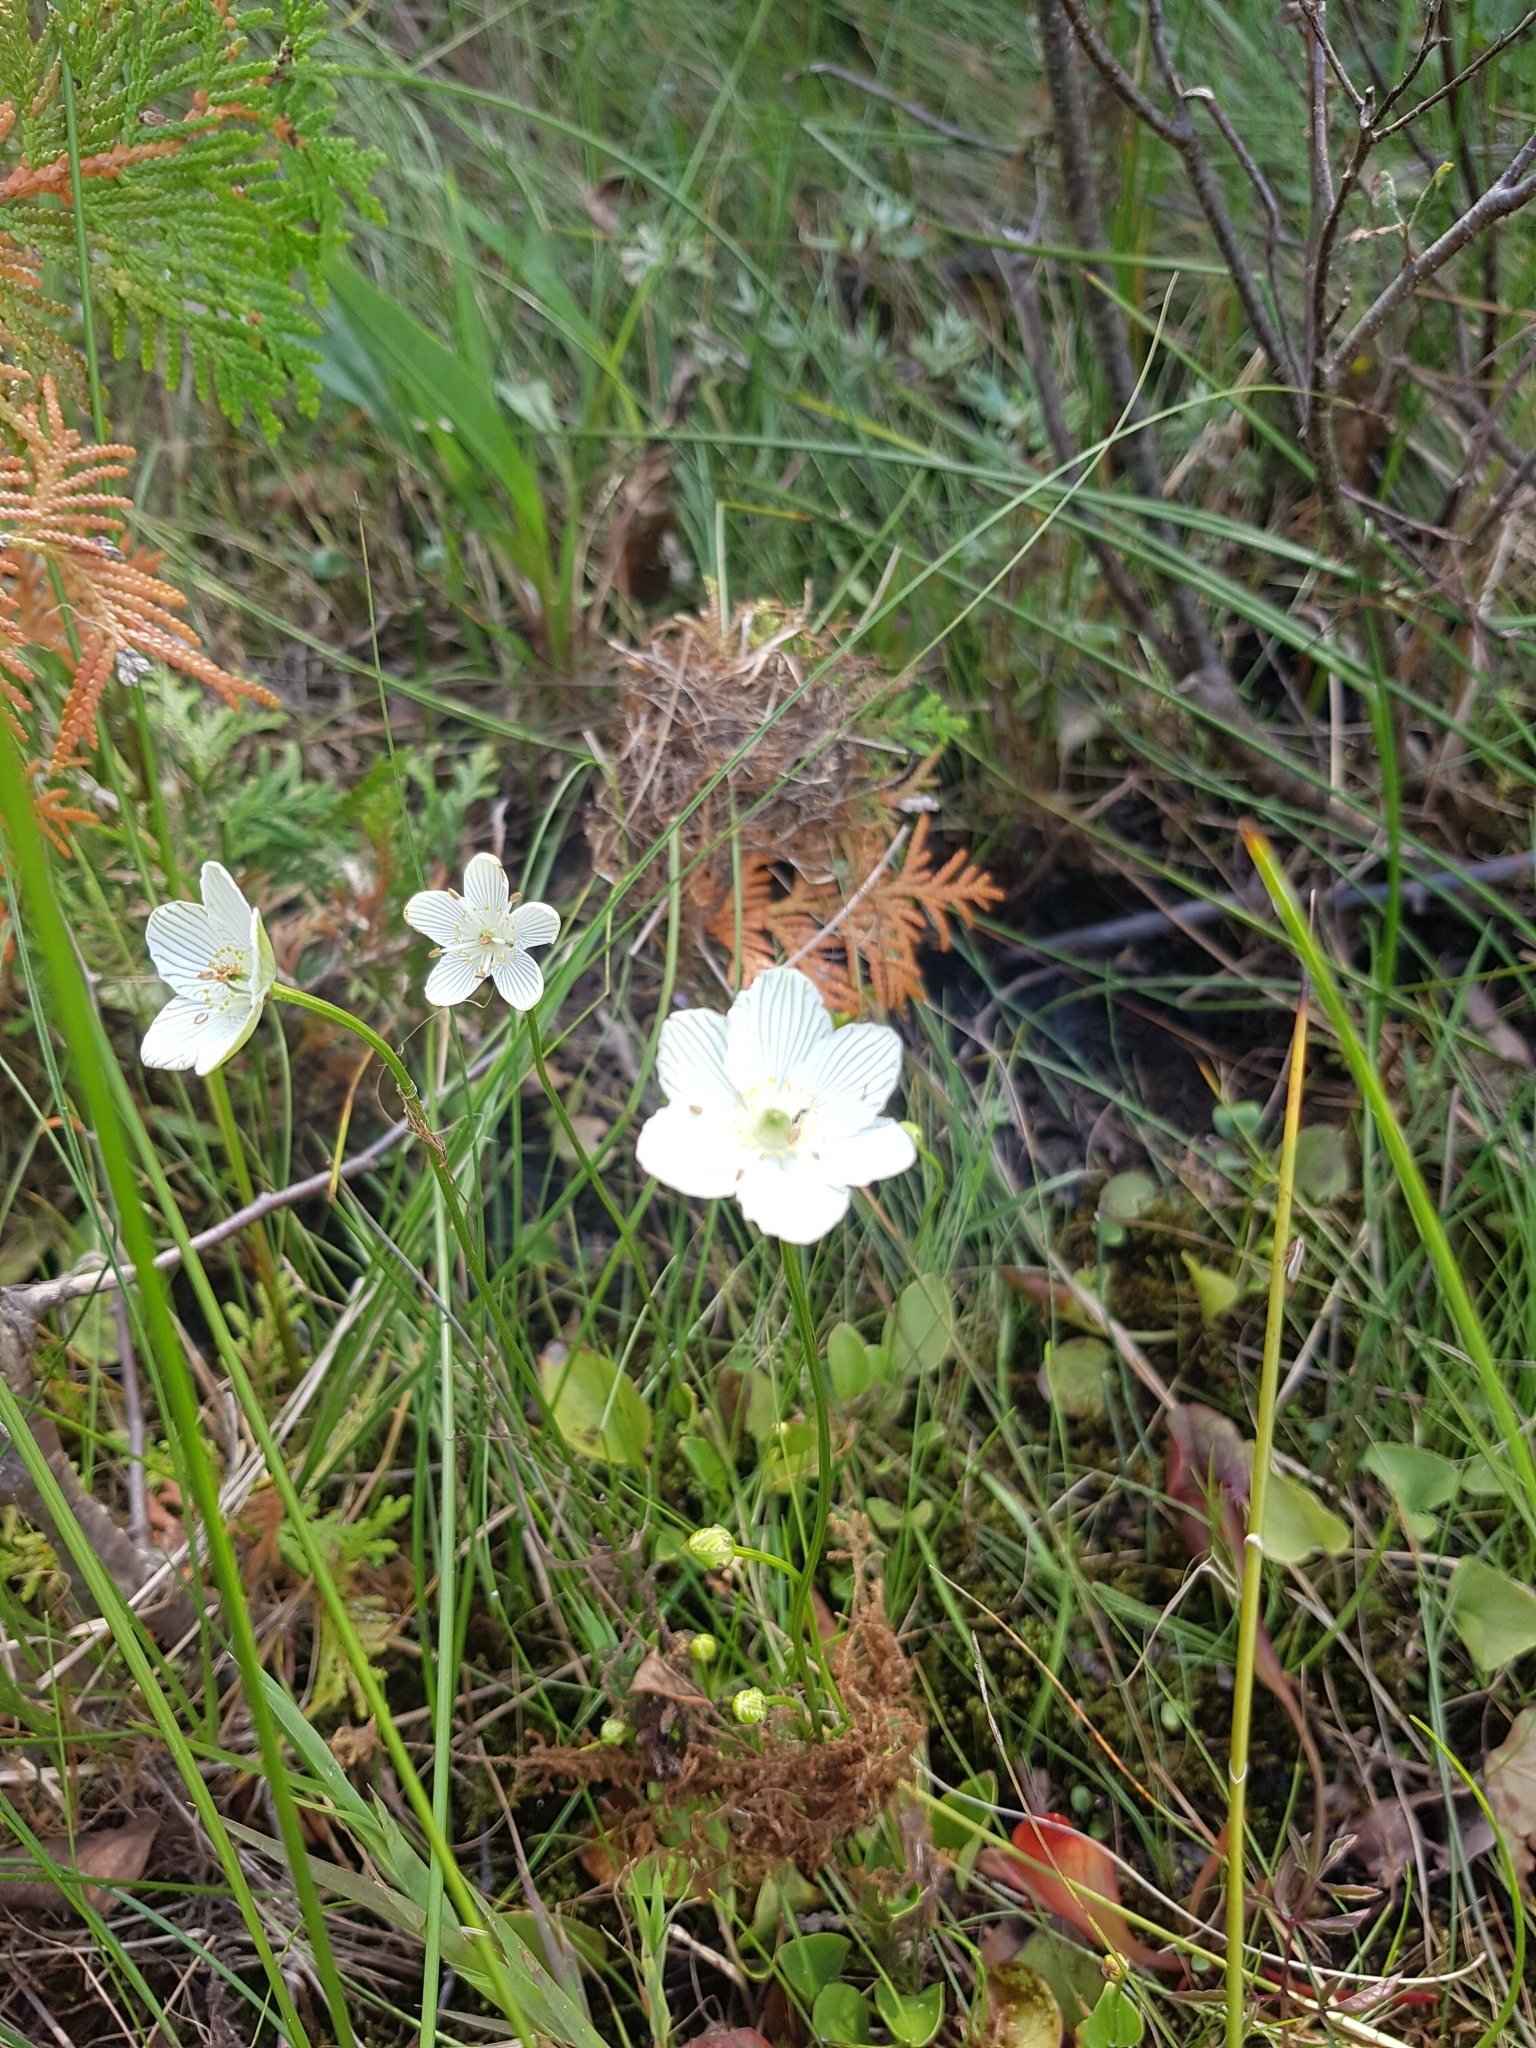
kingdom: Plantae
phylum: Tracheophyta
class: Magnoliopsida
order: Celastrales
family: Parnassiaceae
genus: Parnassia
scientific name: Parnassia glauca
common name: American grass-of-parnassus
